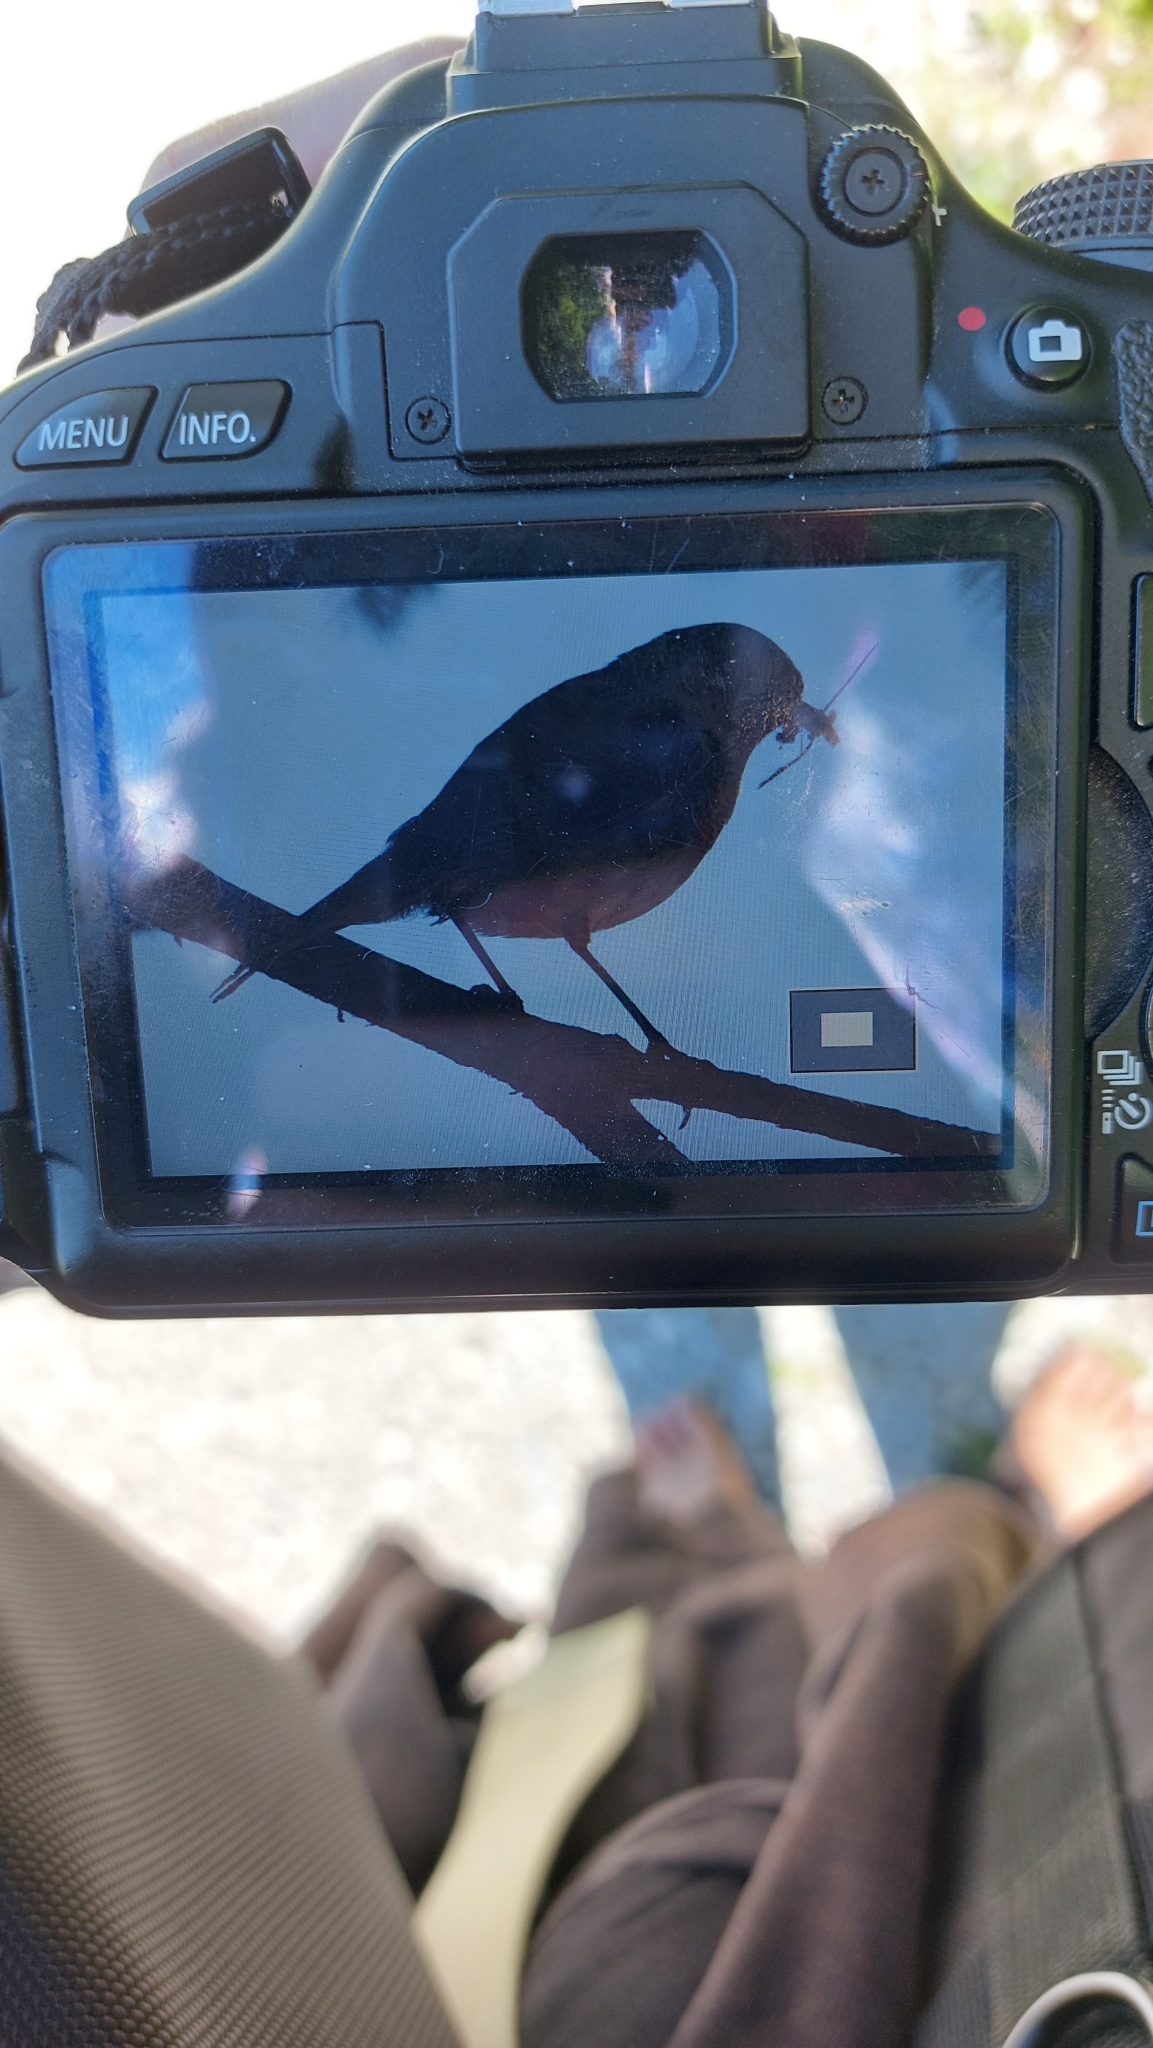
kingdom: Animalia
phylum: Chordata
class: Aves
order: Passeriformes
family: Muscicapidae
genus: Erithacus
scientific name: Erithacus rubecula
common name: European robin
